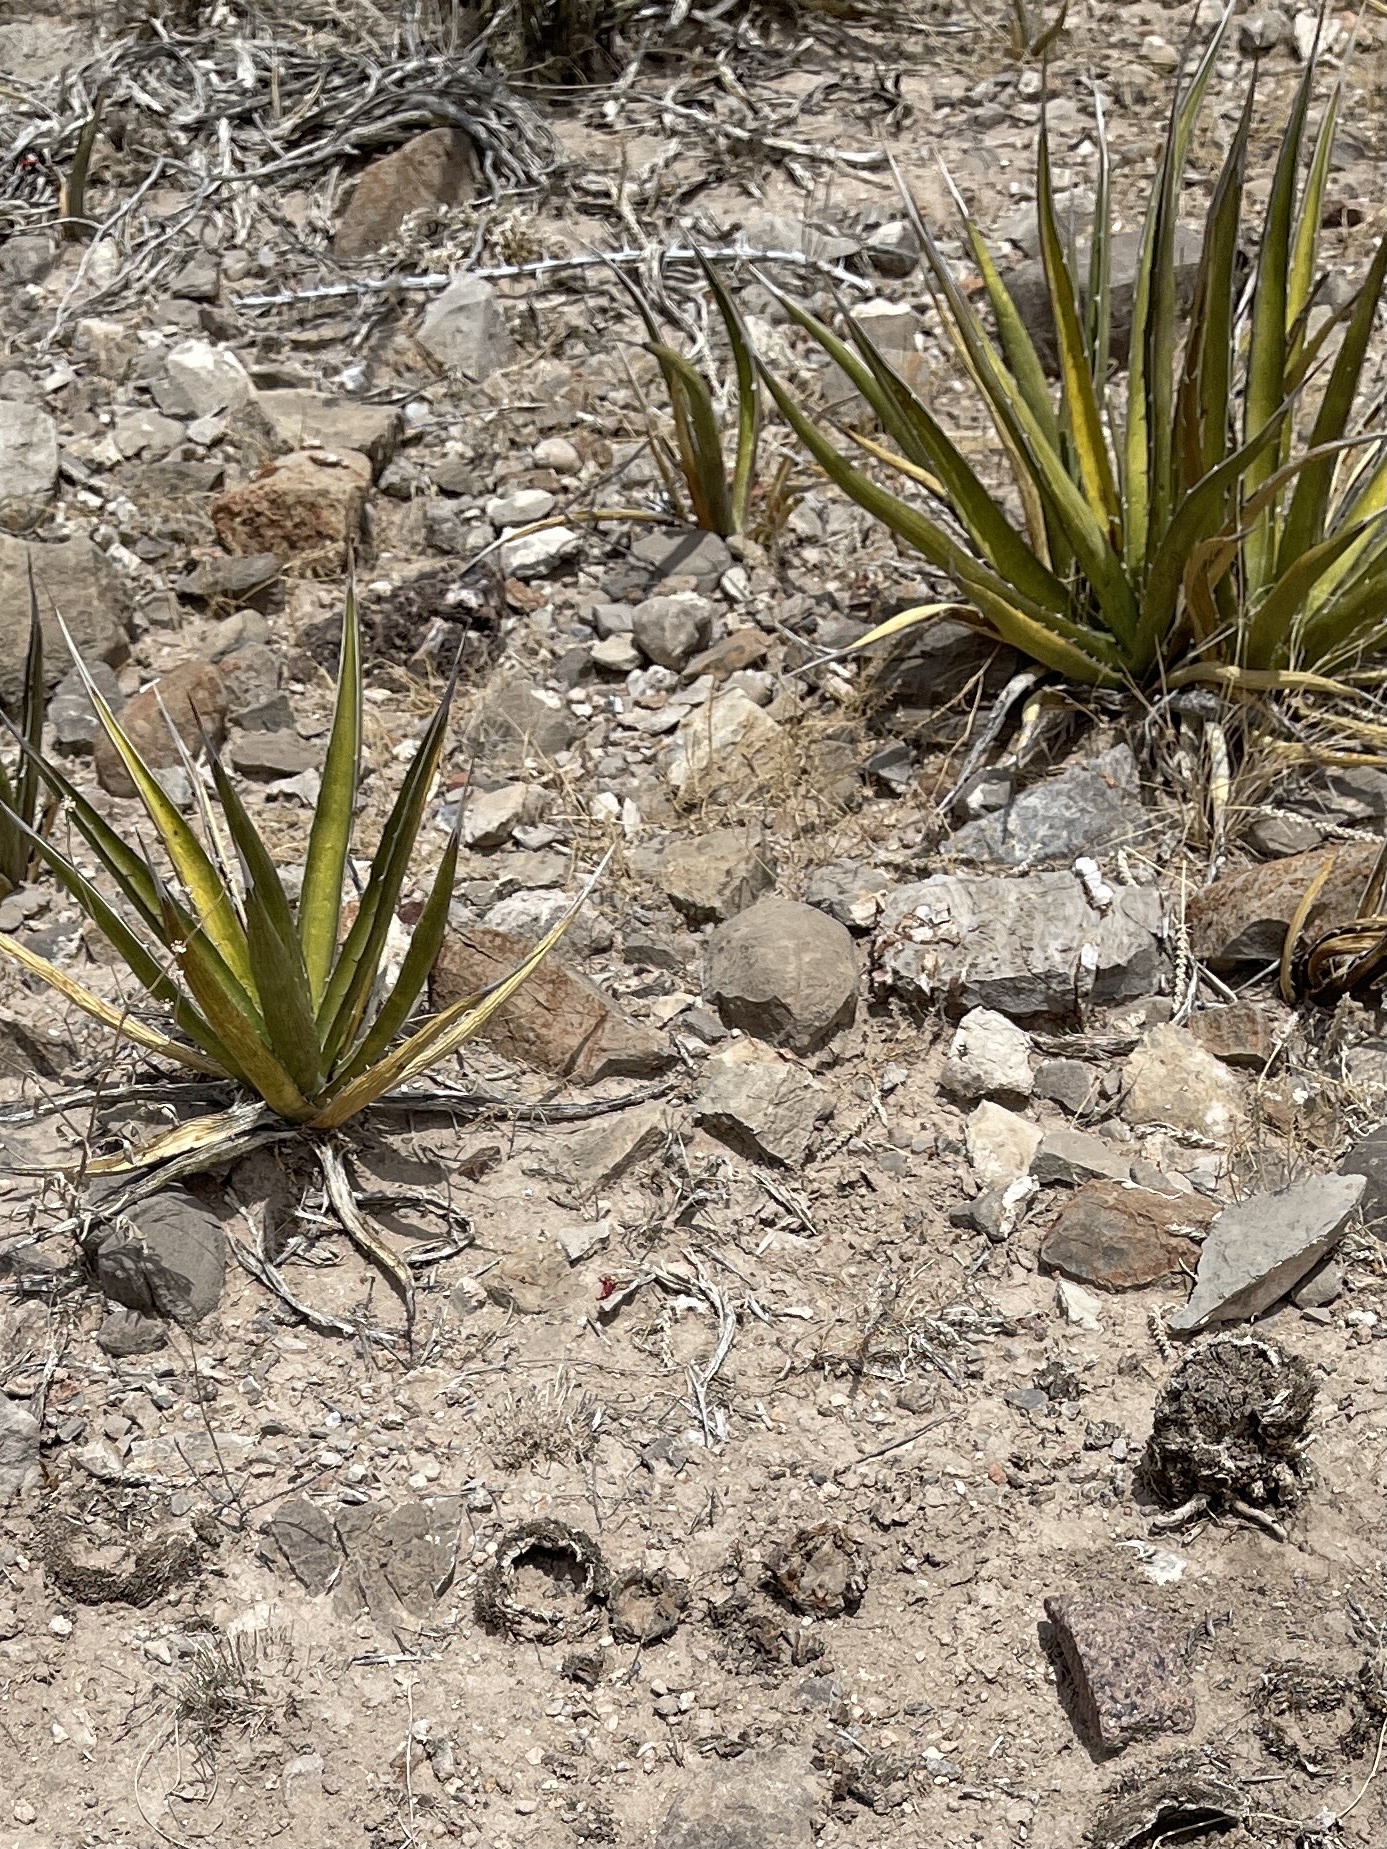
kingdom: Plantae
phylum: Tracheophyta
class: Liliopsida
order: Asparagales
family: Asparagaceae
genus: Agave
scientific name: Agave lechuguilla
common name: Lecheguilla agave
